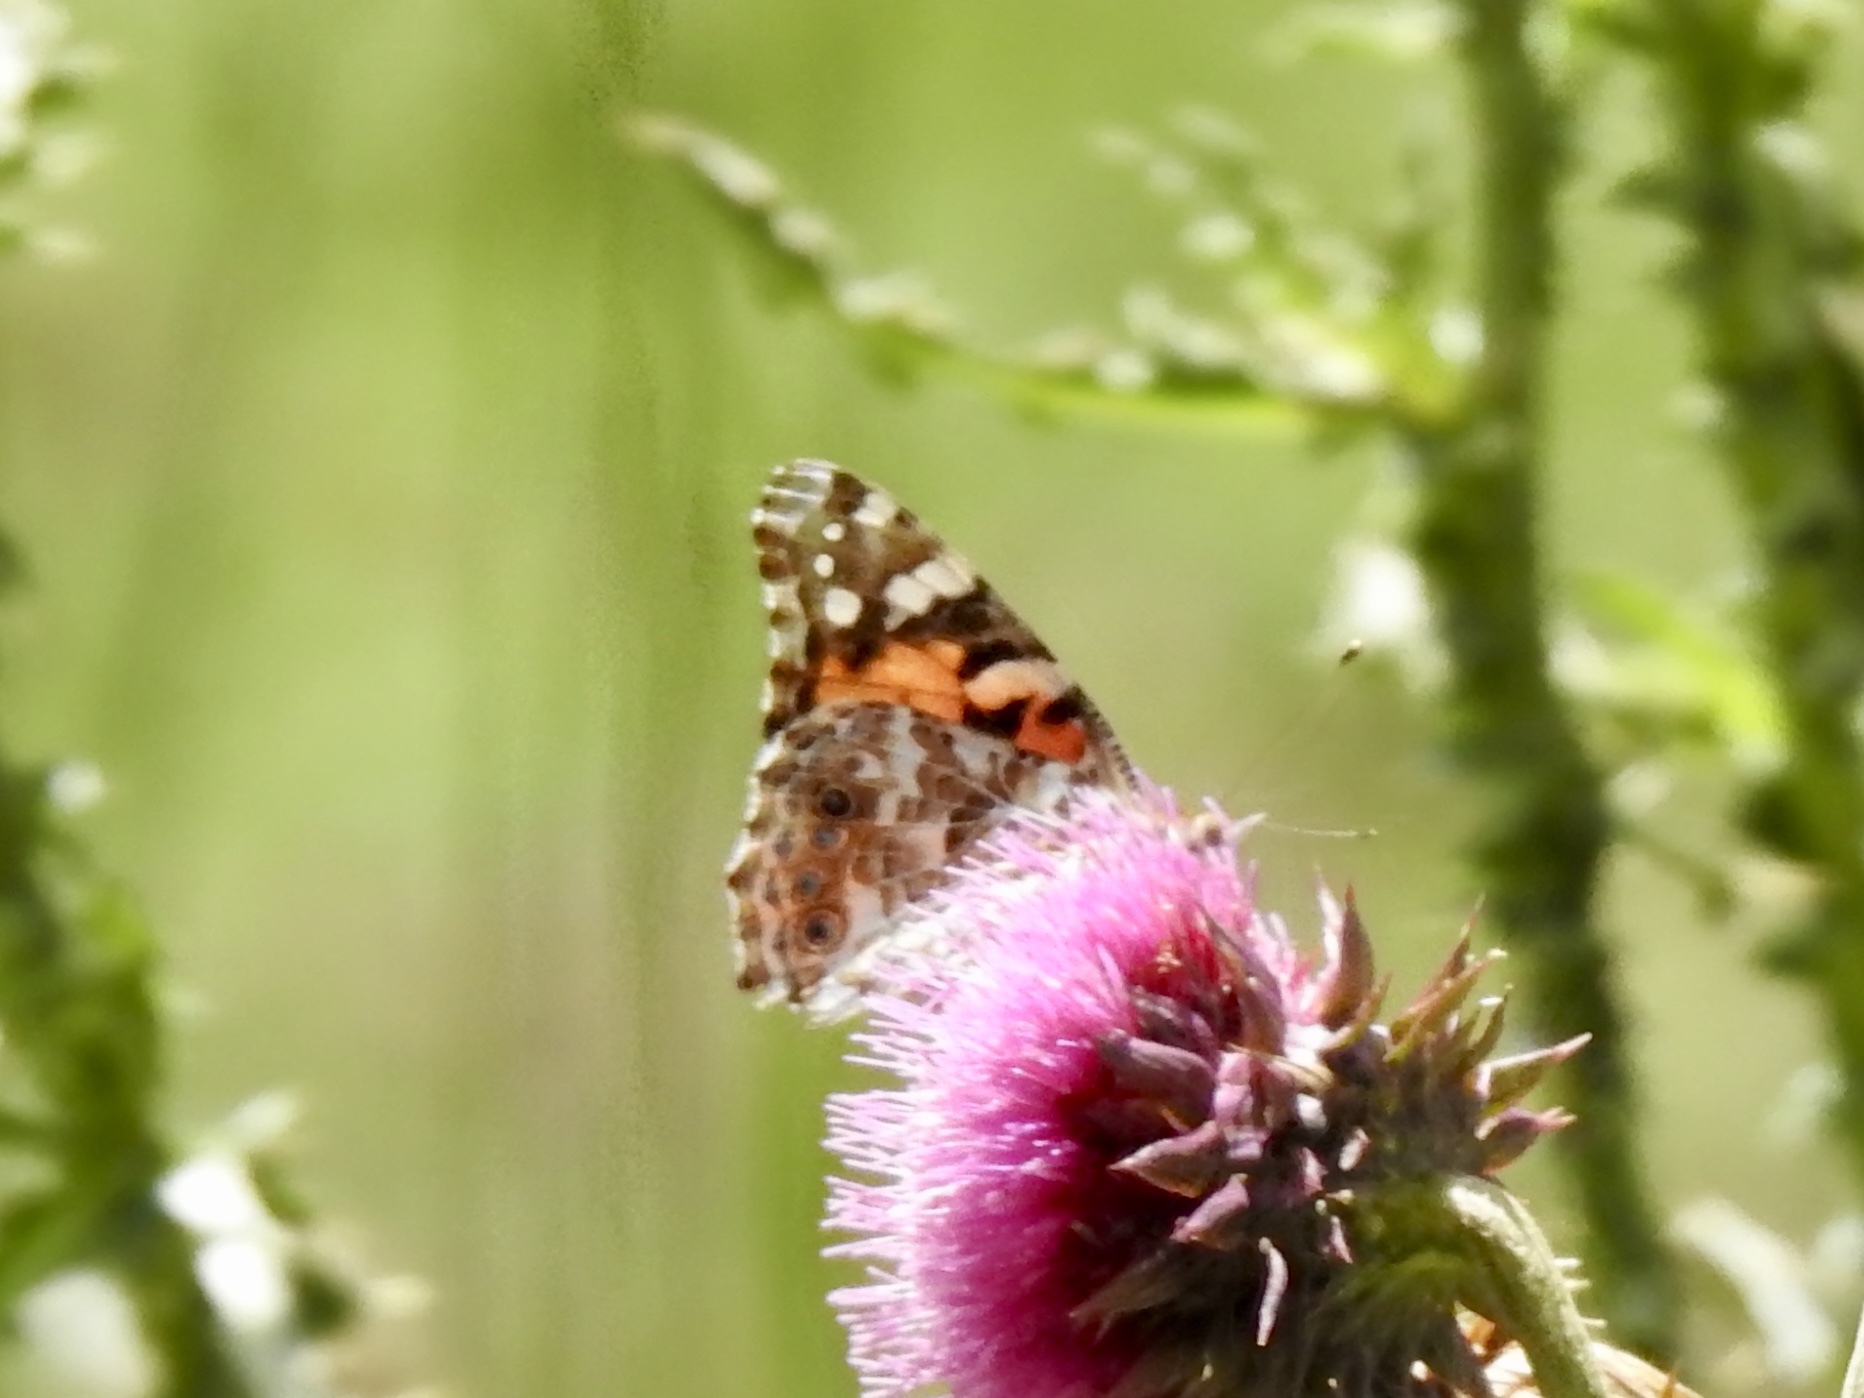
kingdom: Animalia
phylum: Arthropoda
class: Insecta
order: Lepidoptera
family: Nymphalidae
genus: Vanessa
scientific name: Vanessa cardui
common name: Painted lady
